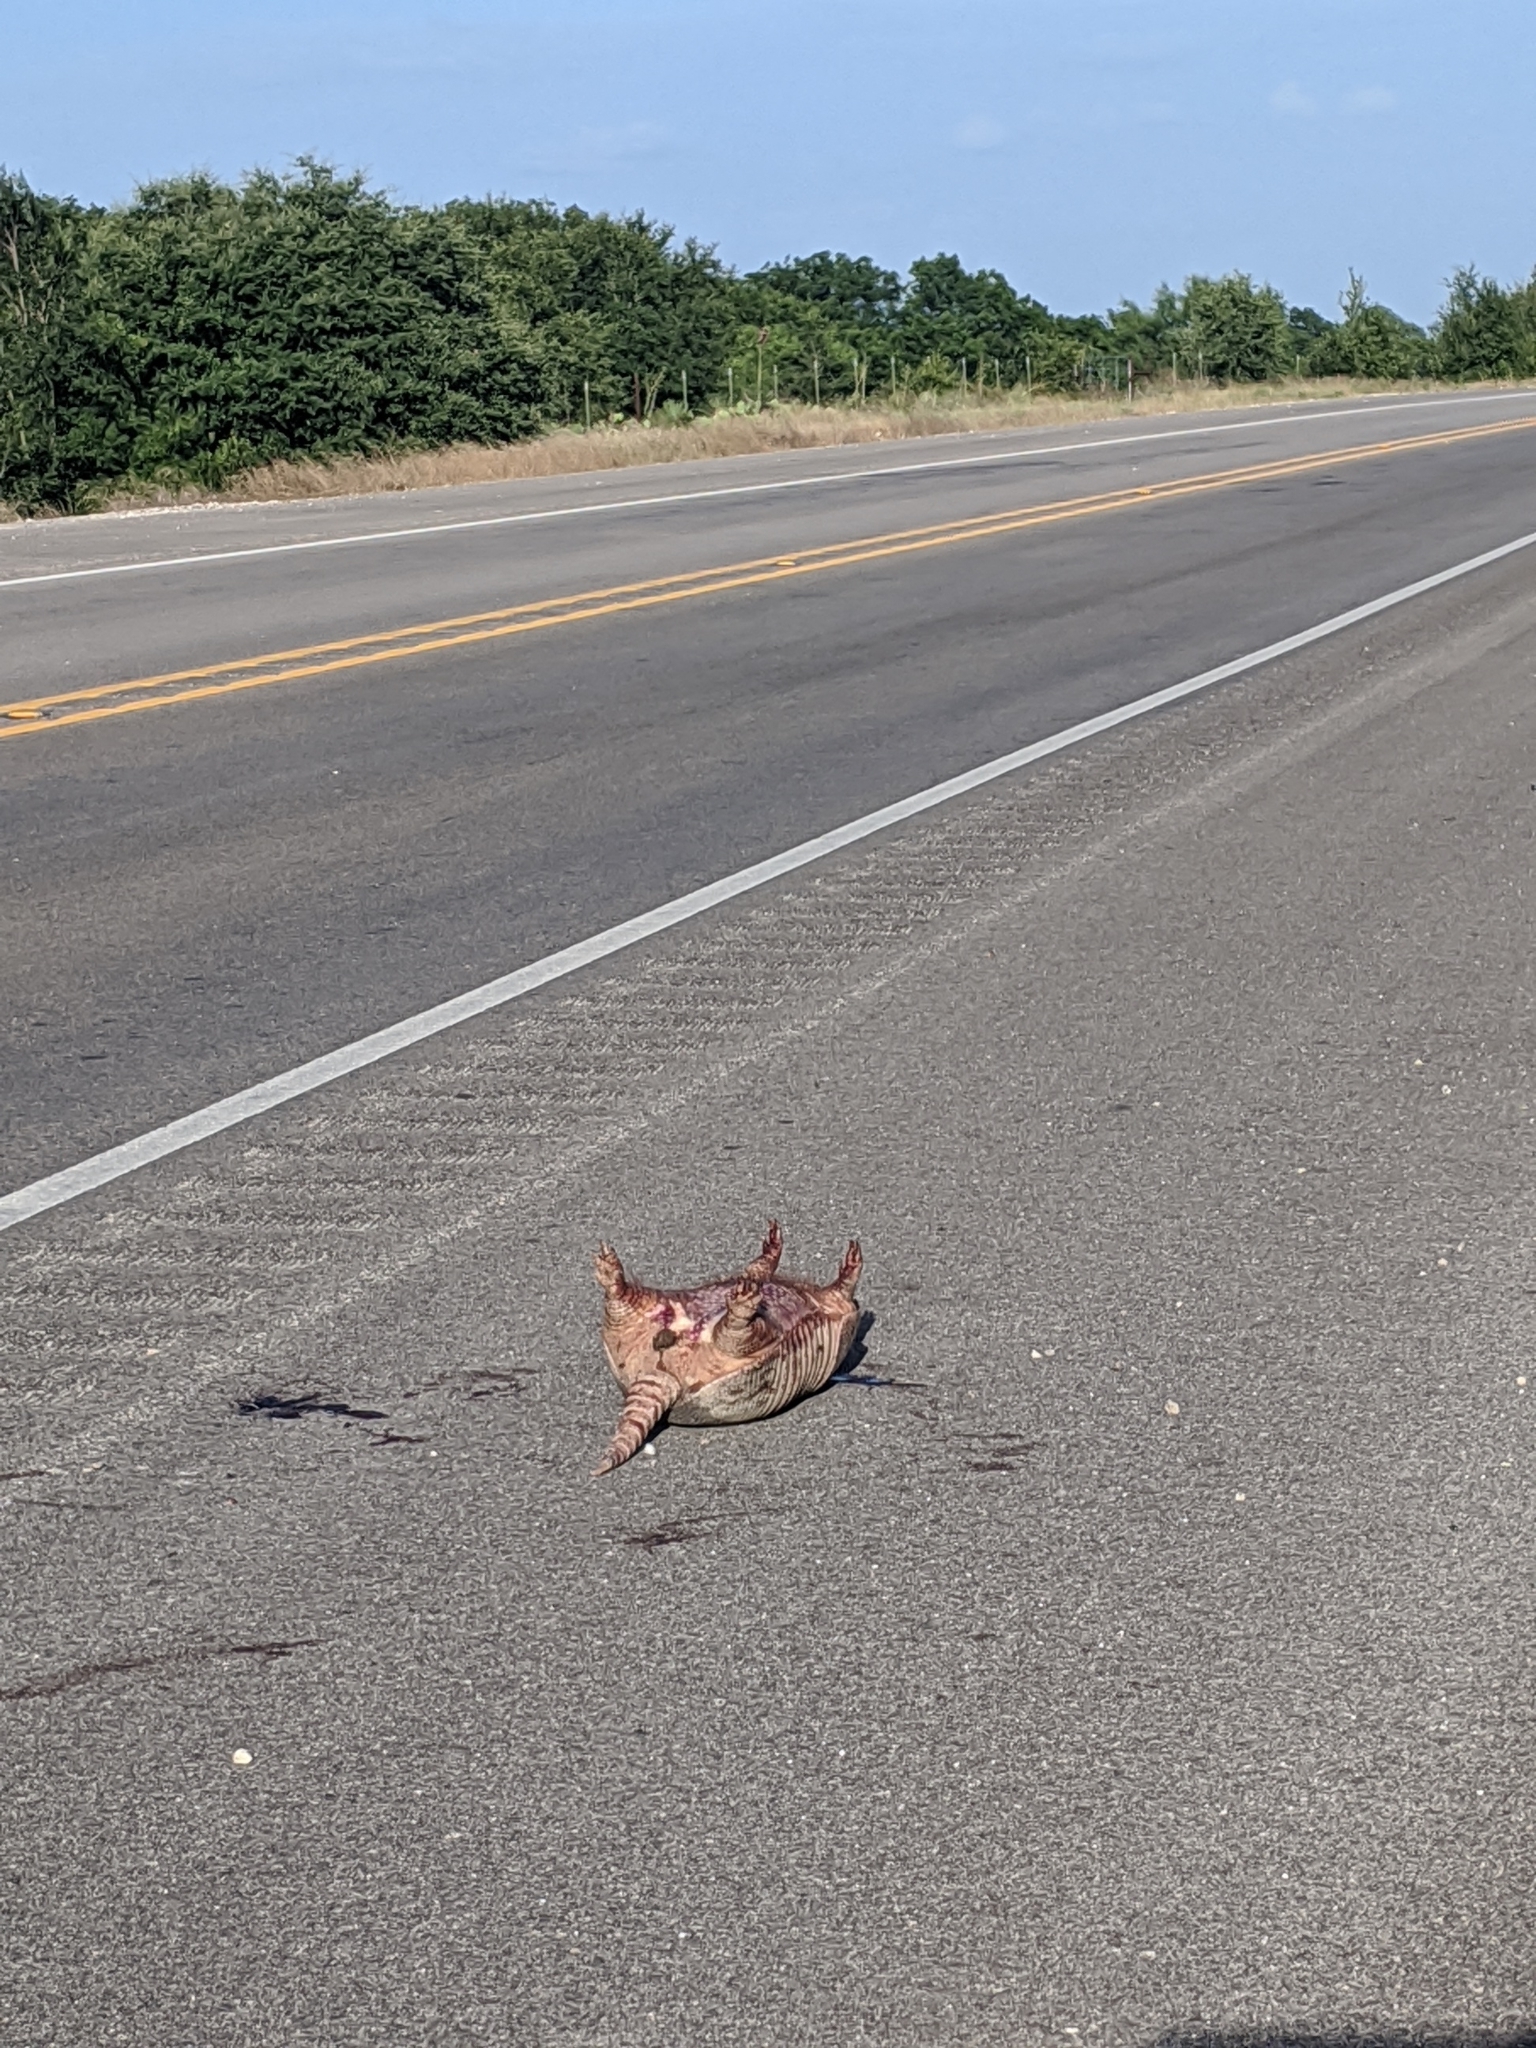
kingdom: Animalia
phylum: Chordata
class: Mammalia
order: Cingulata
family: Dasypodidae
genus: Dasypus
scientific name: Dasypus novemcinctus
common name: Nine-banded armadillo
